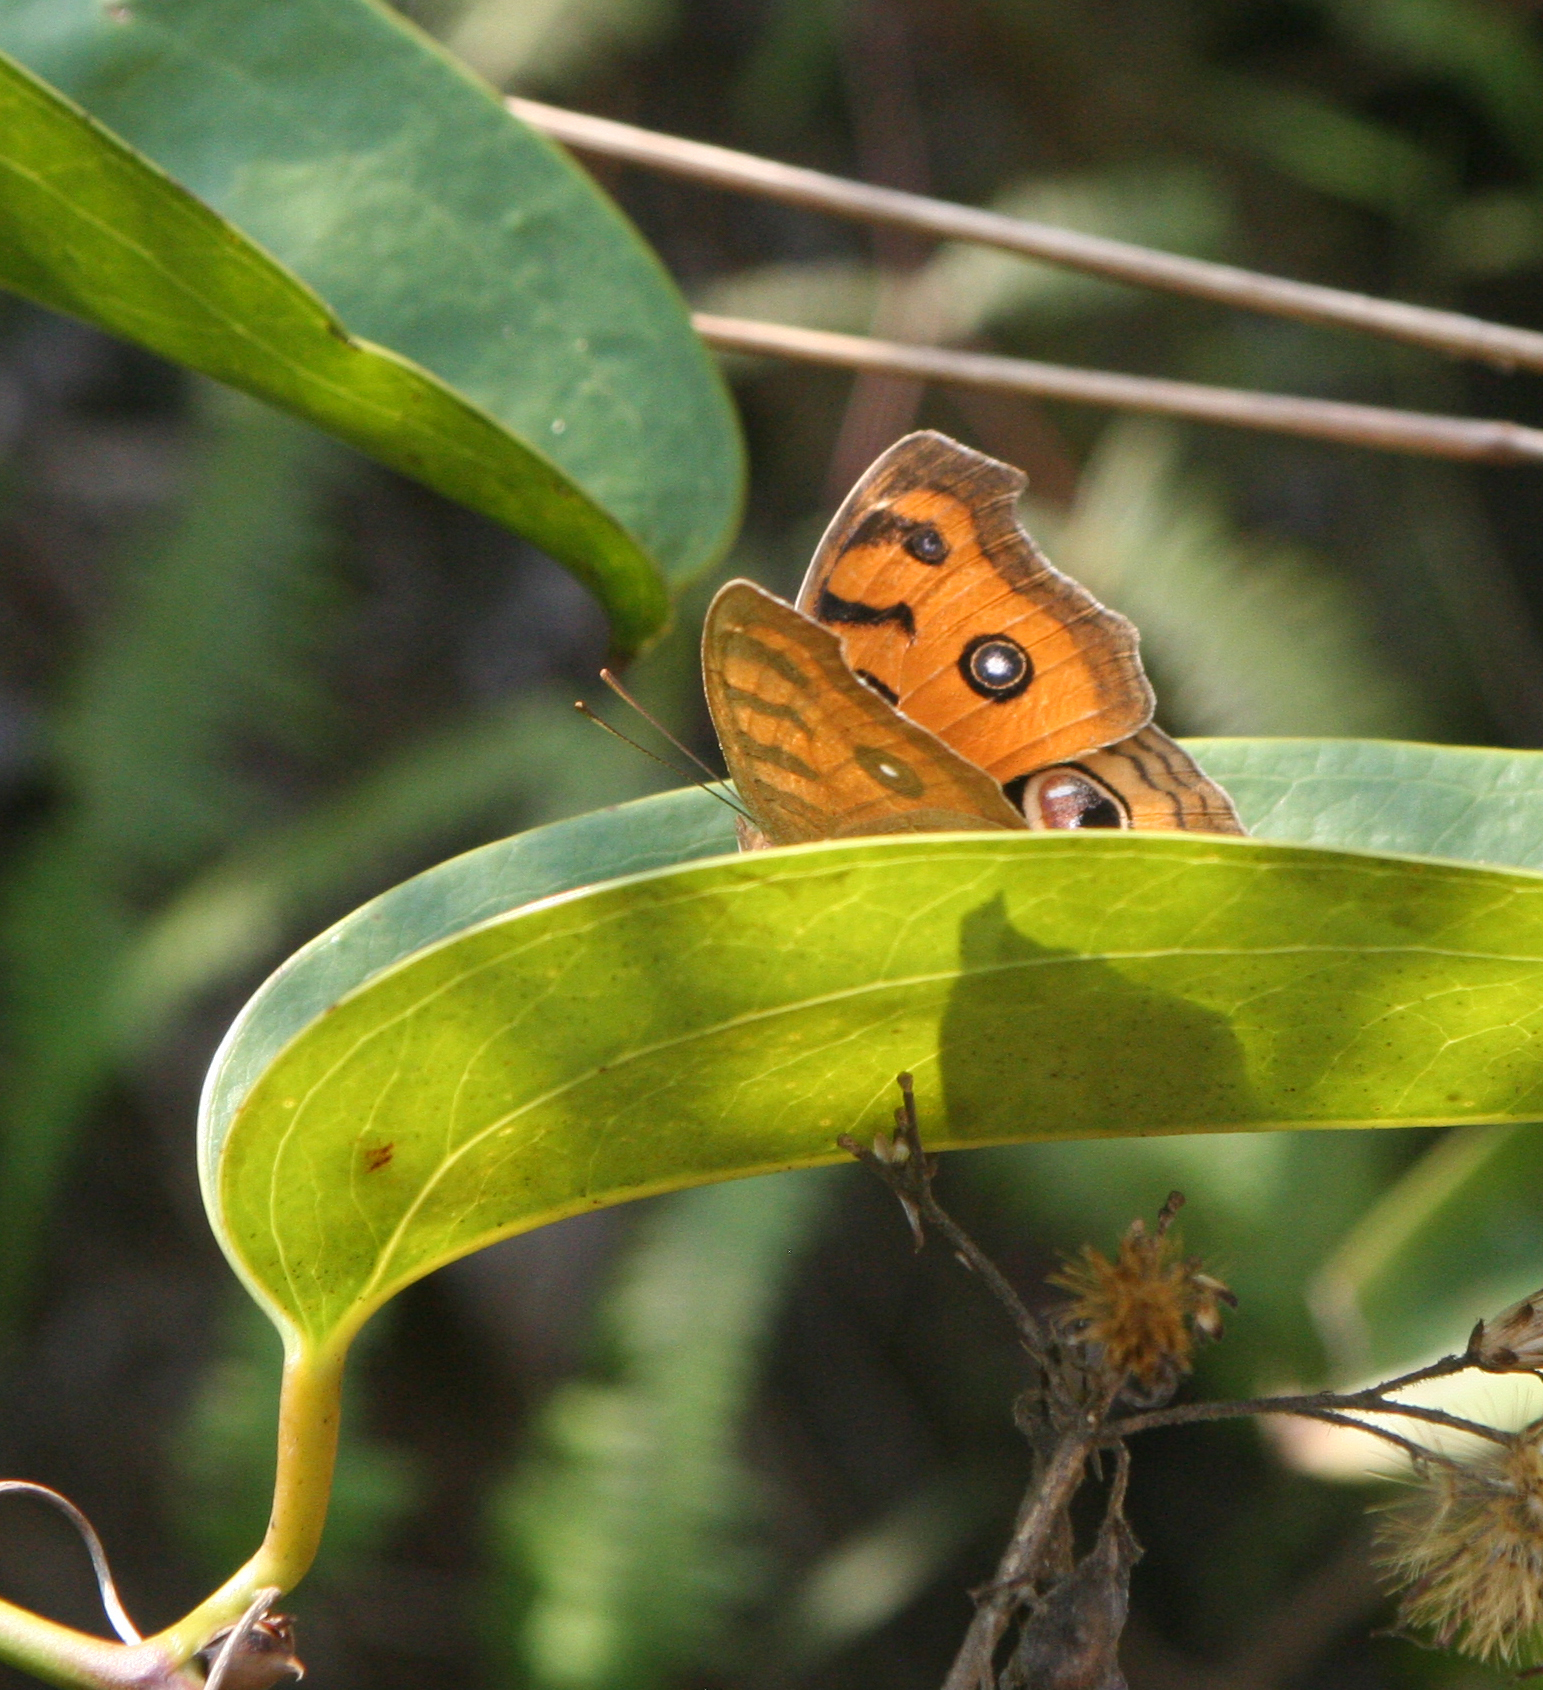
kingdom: Animalia
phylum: Arthropoda
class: Insecta
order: Lepidoptera
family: Nymphalidae
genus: Junonia
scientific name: Junonia almana
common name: Peacock pansy
